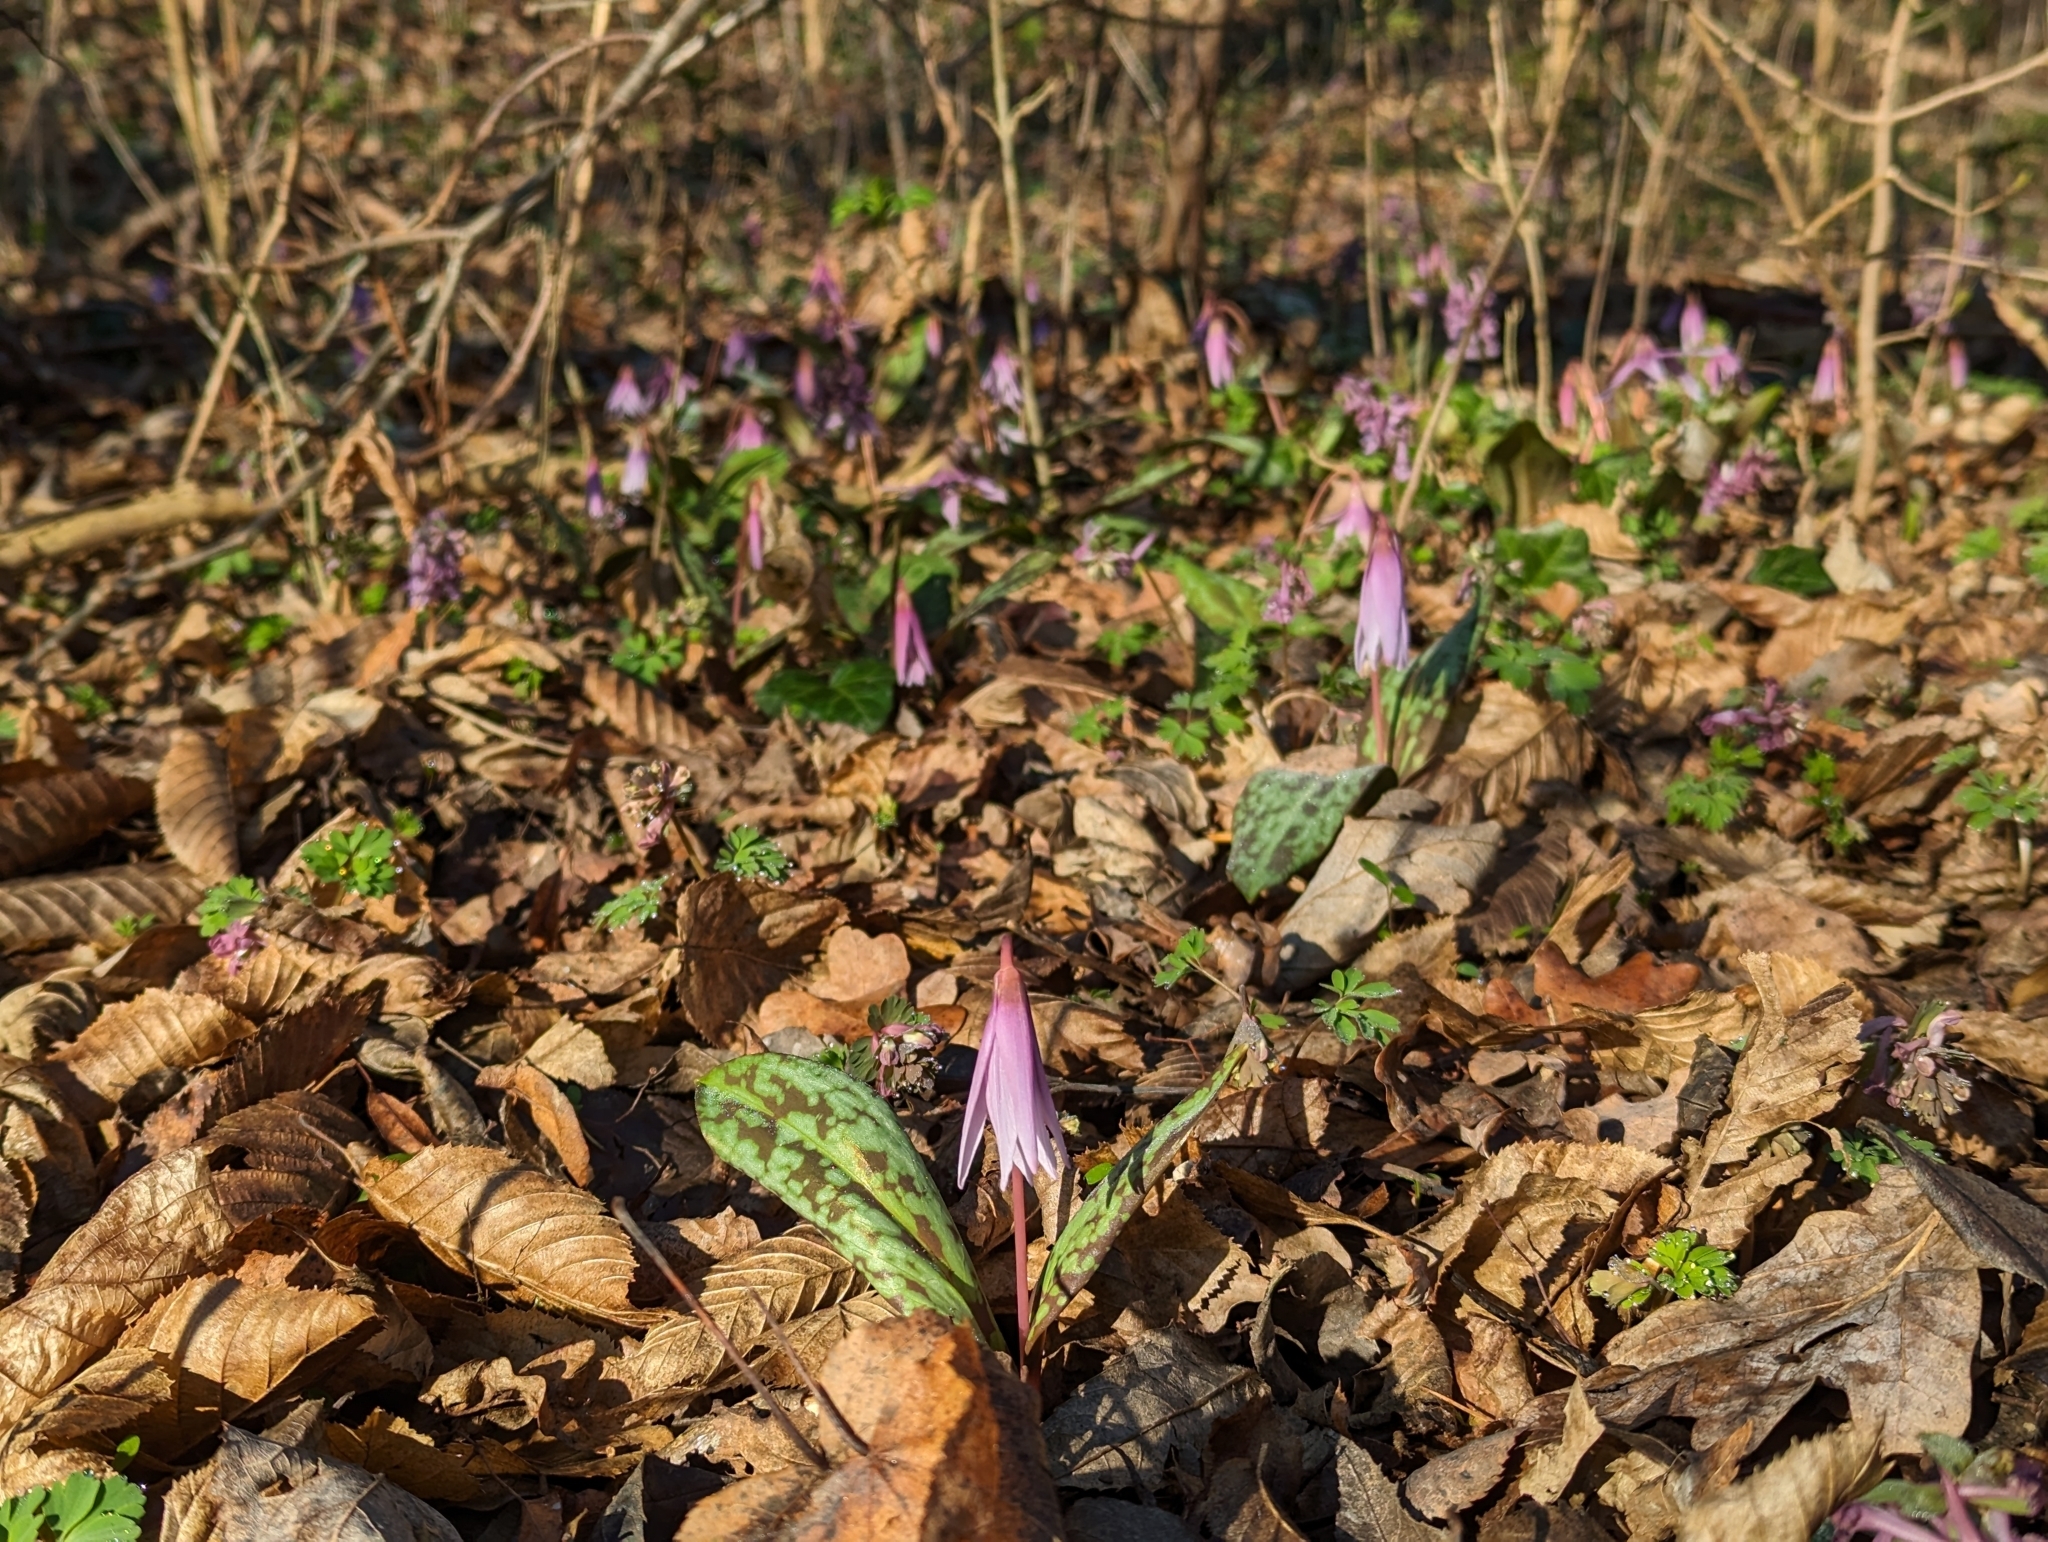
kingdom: Plantae
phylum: Tracheophyta
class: Liliopsida
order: Liliales
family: Liliaceae
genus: Erythronium
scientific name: Erythronium dens-canis
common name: Dog's-tooth-violet
